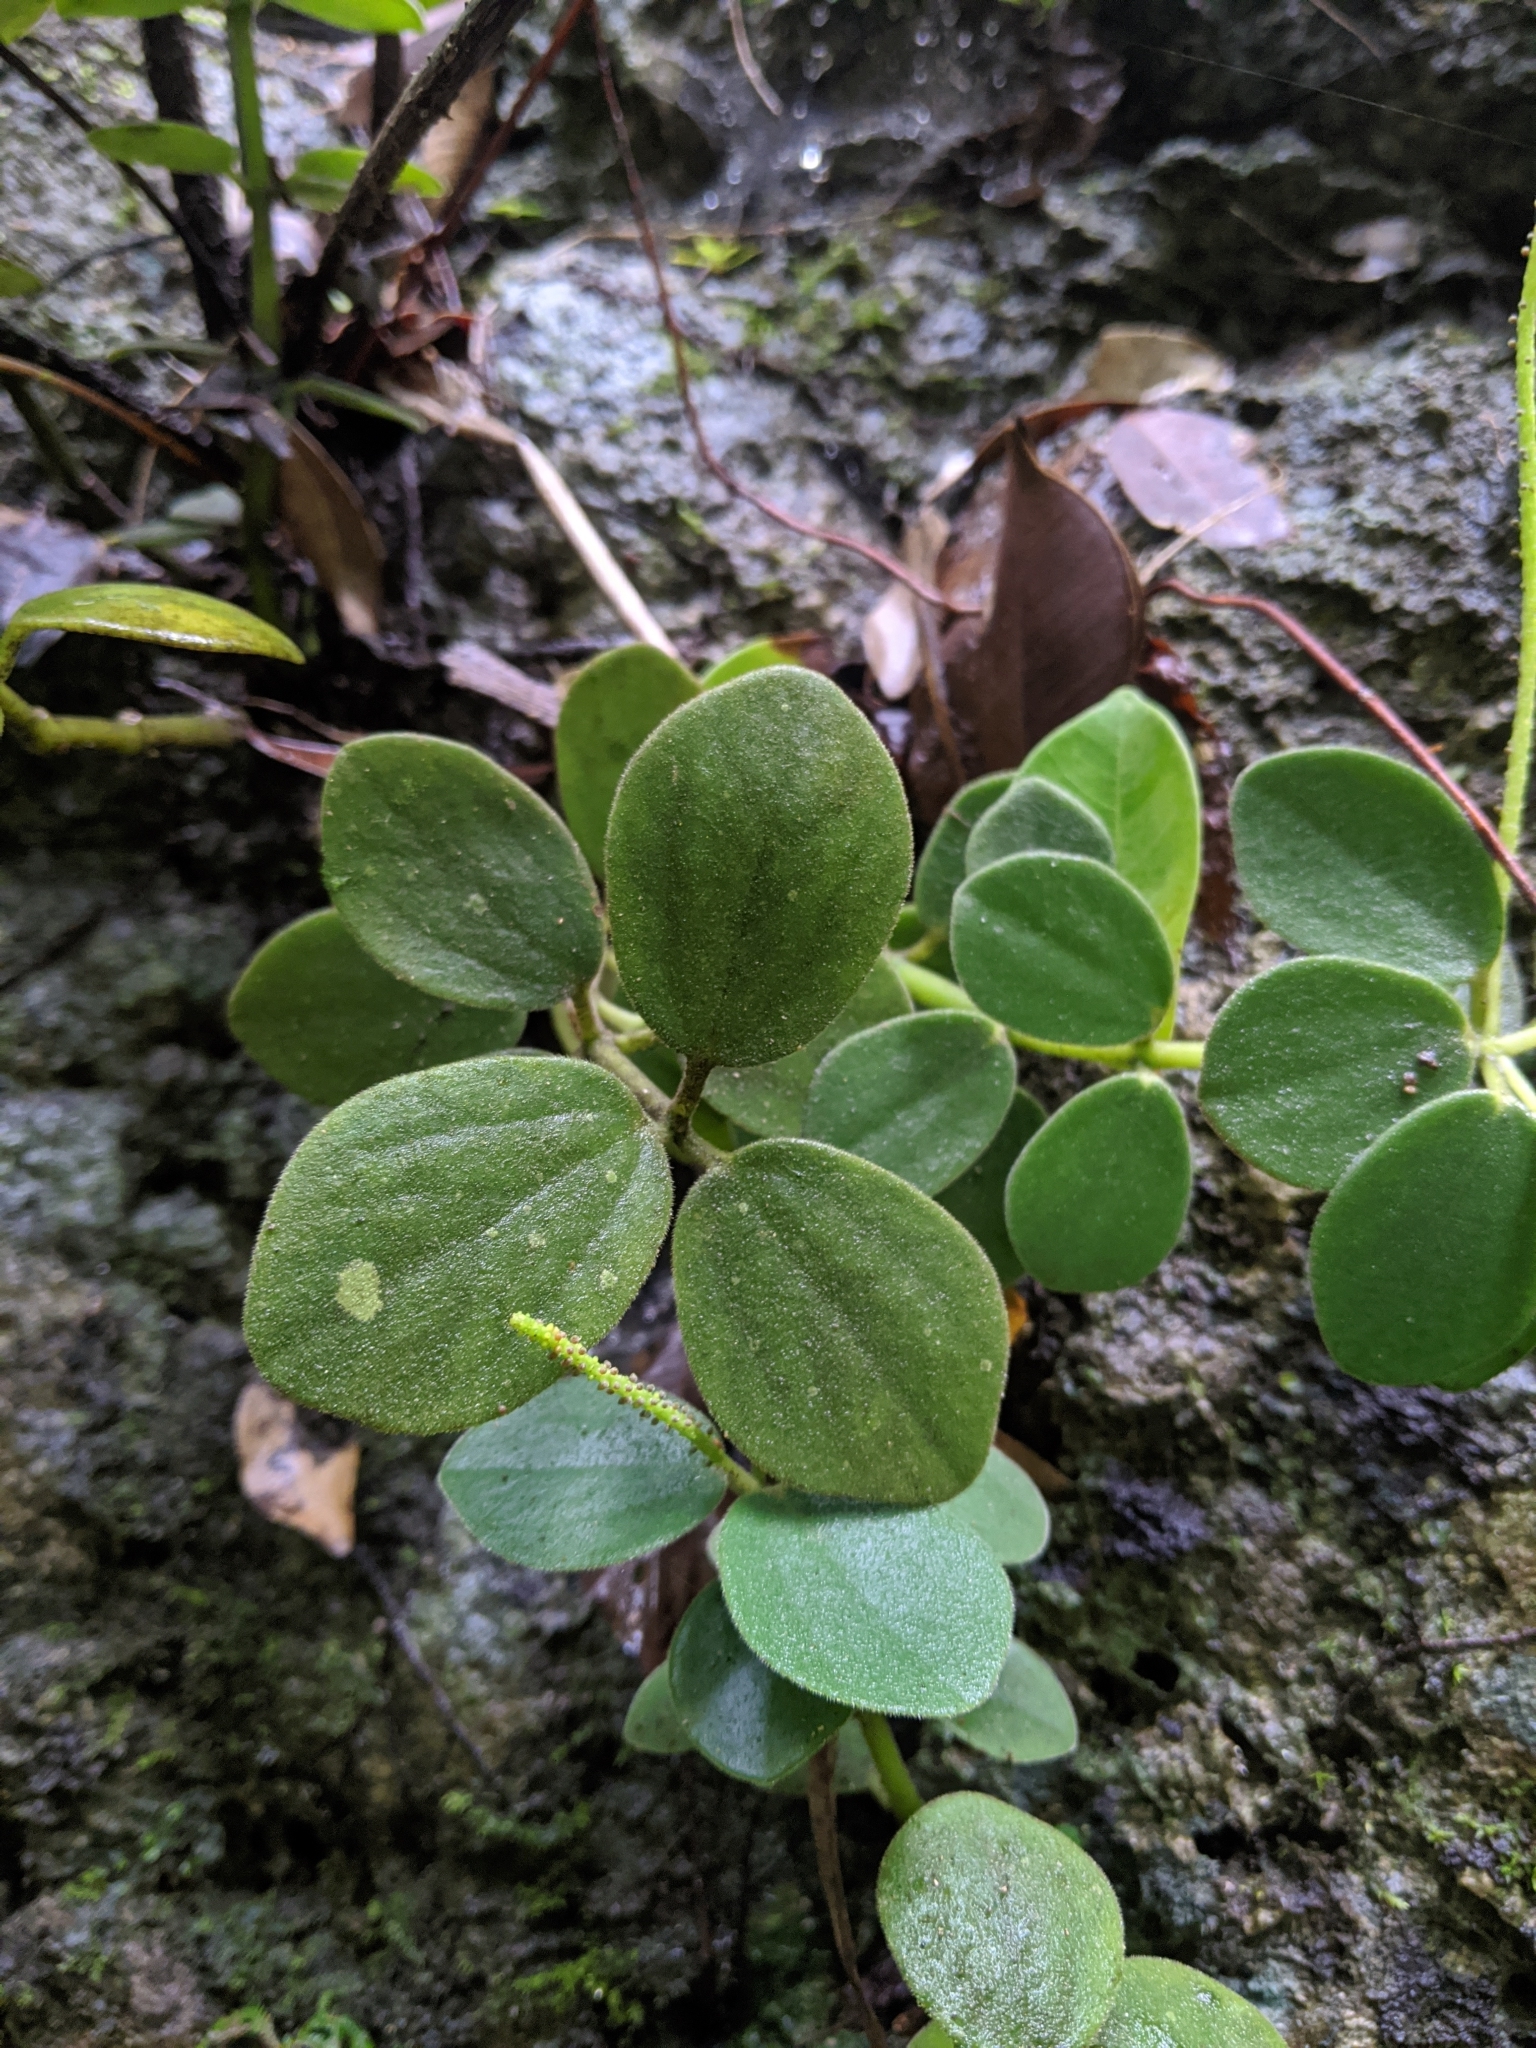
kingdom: Plantae
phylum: Tracheophyta
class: Magnoliopsida
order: Piperales
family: Piperaceae
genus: Peperomia
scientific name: Peperomia japonica
